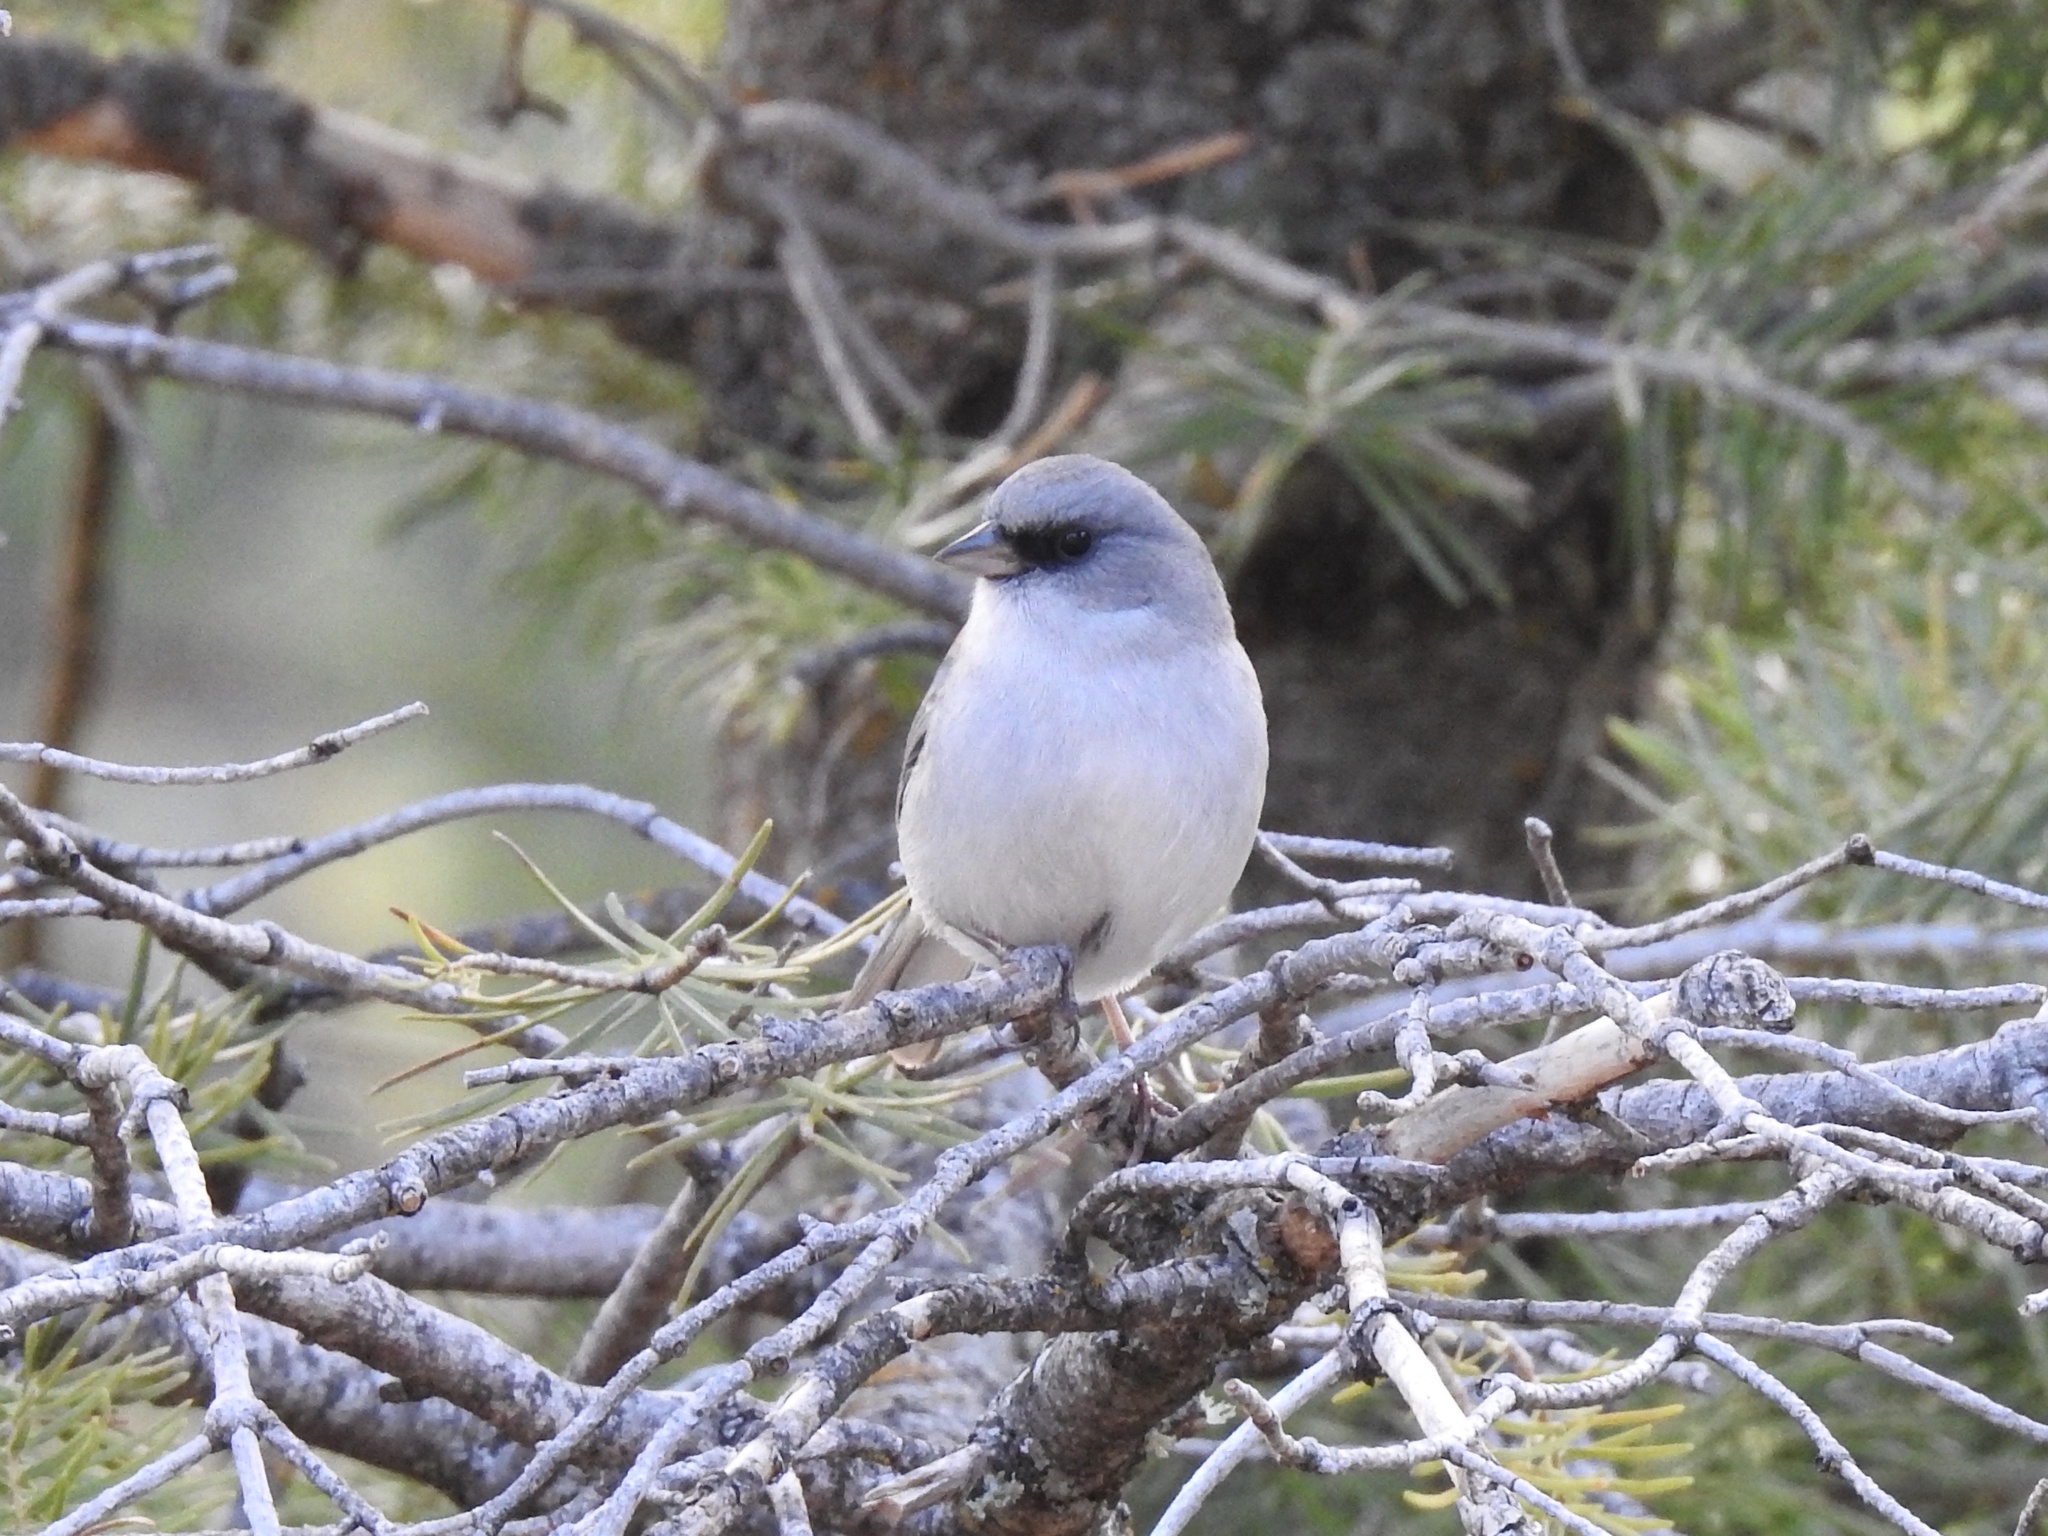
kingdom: Animalia
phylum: Chordata
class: Aves
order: Passeriformes
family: Passerellidae
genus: Junco
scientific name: Junco hyemalis
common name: Dark-eyed junco
